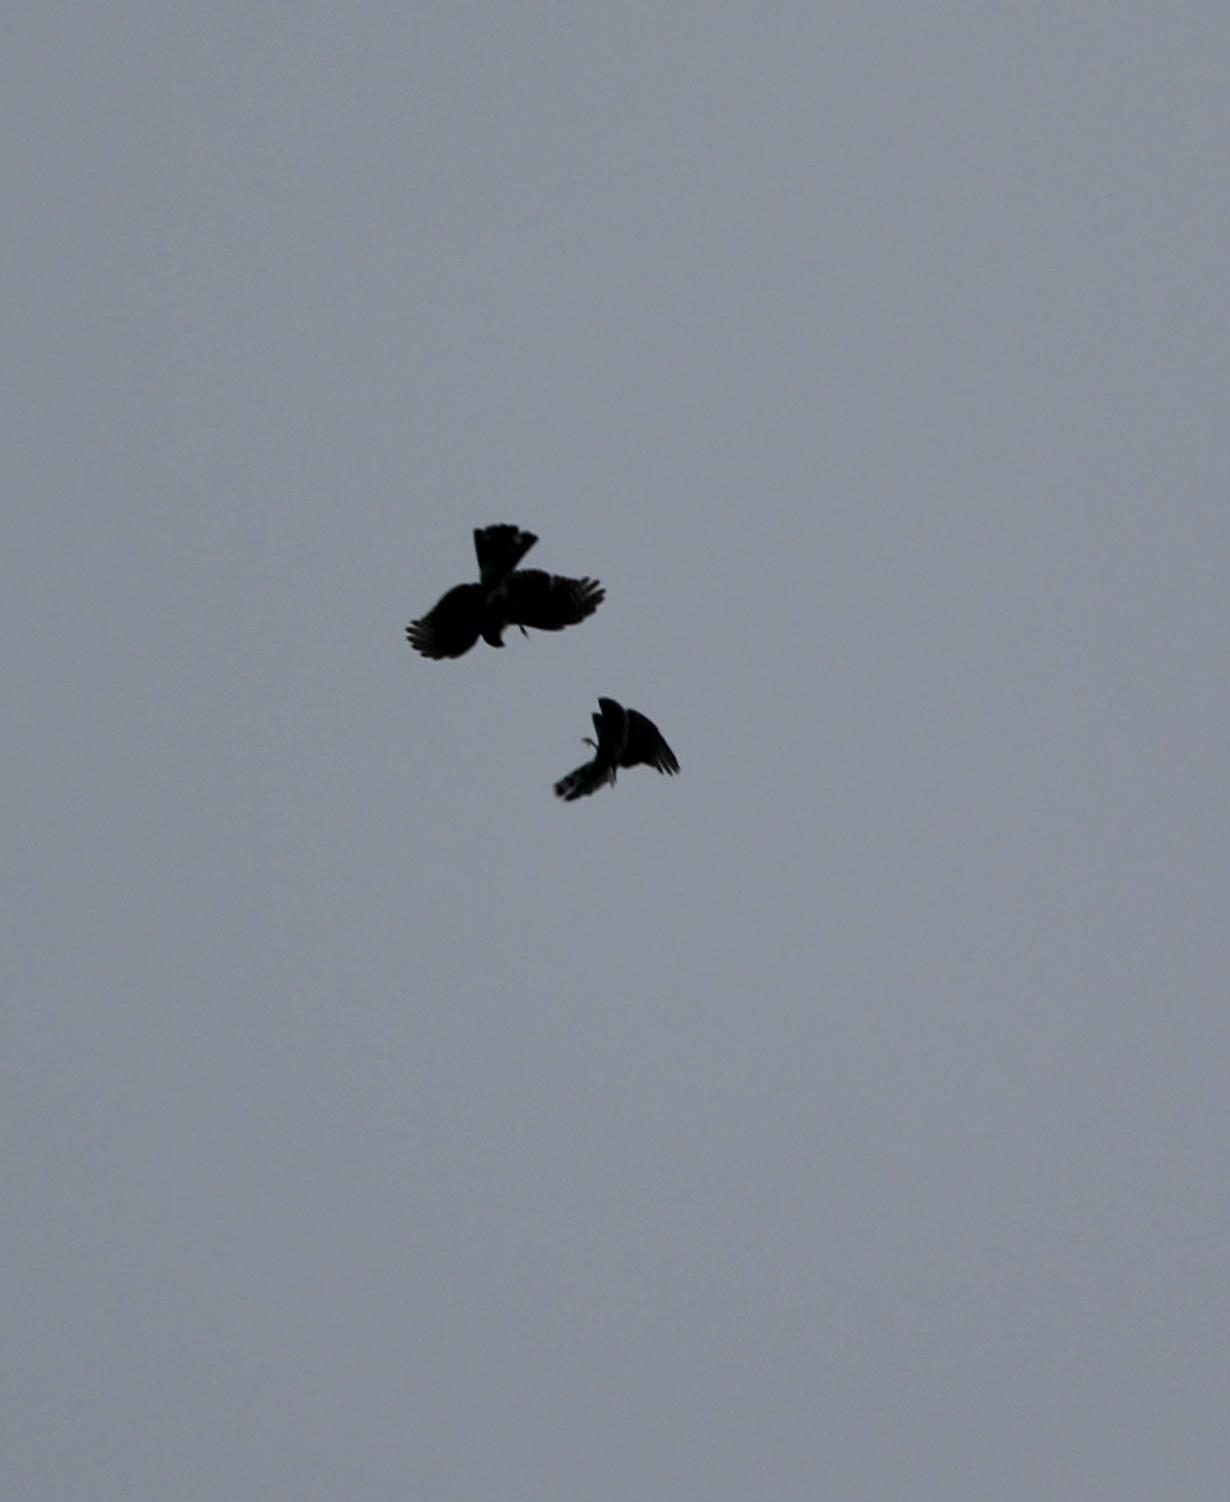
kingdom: Animalia
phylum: Chordata
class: Aves
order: Accipitriformes
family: Accipitridae
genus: Accipiter
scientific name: Accipiter striatus
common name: Sharp-shinned hawk
